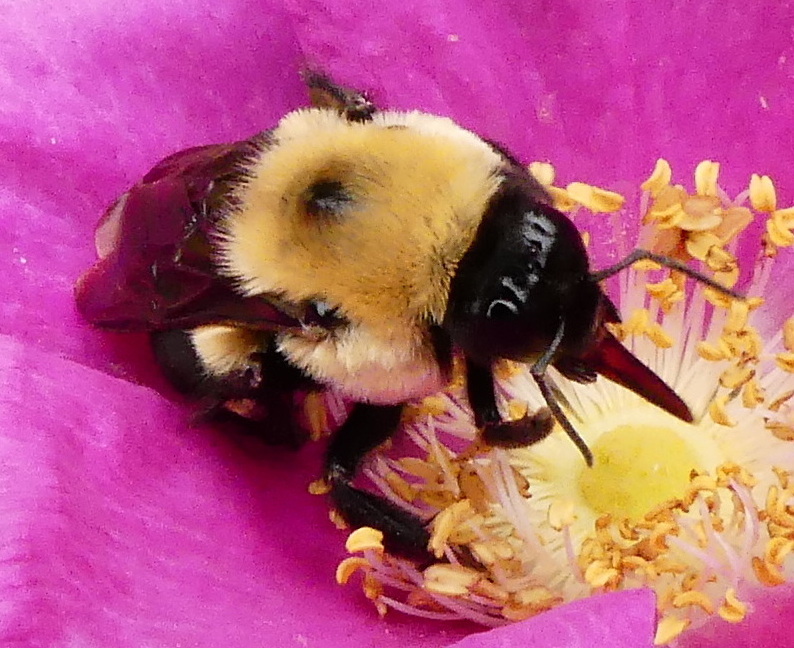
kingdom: Animalia
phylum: Arthropoda
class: Insecta
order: Hymenoptera
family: Apidae
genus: Bombus
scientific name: Bombus griseocollis
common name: Brown-belted bumble bee
